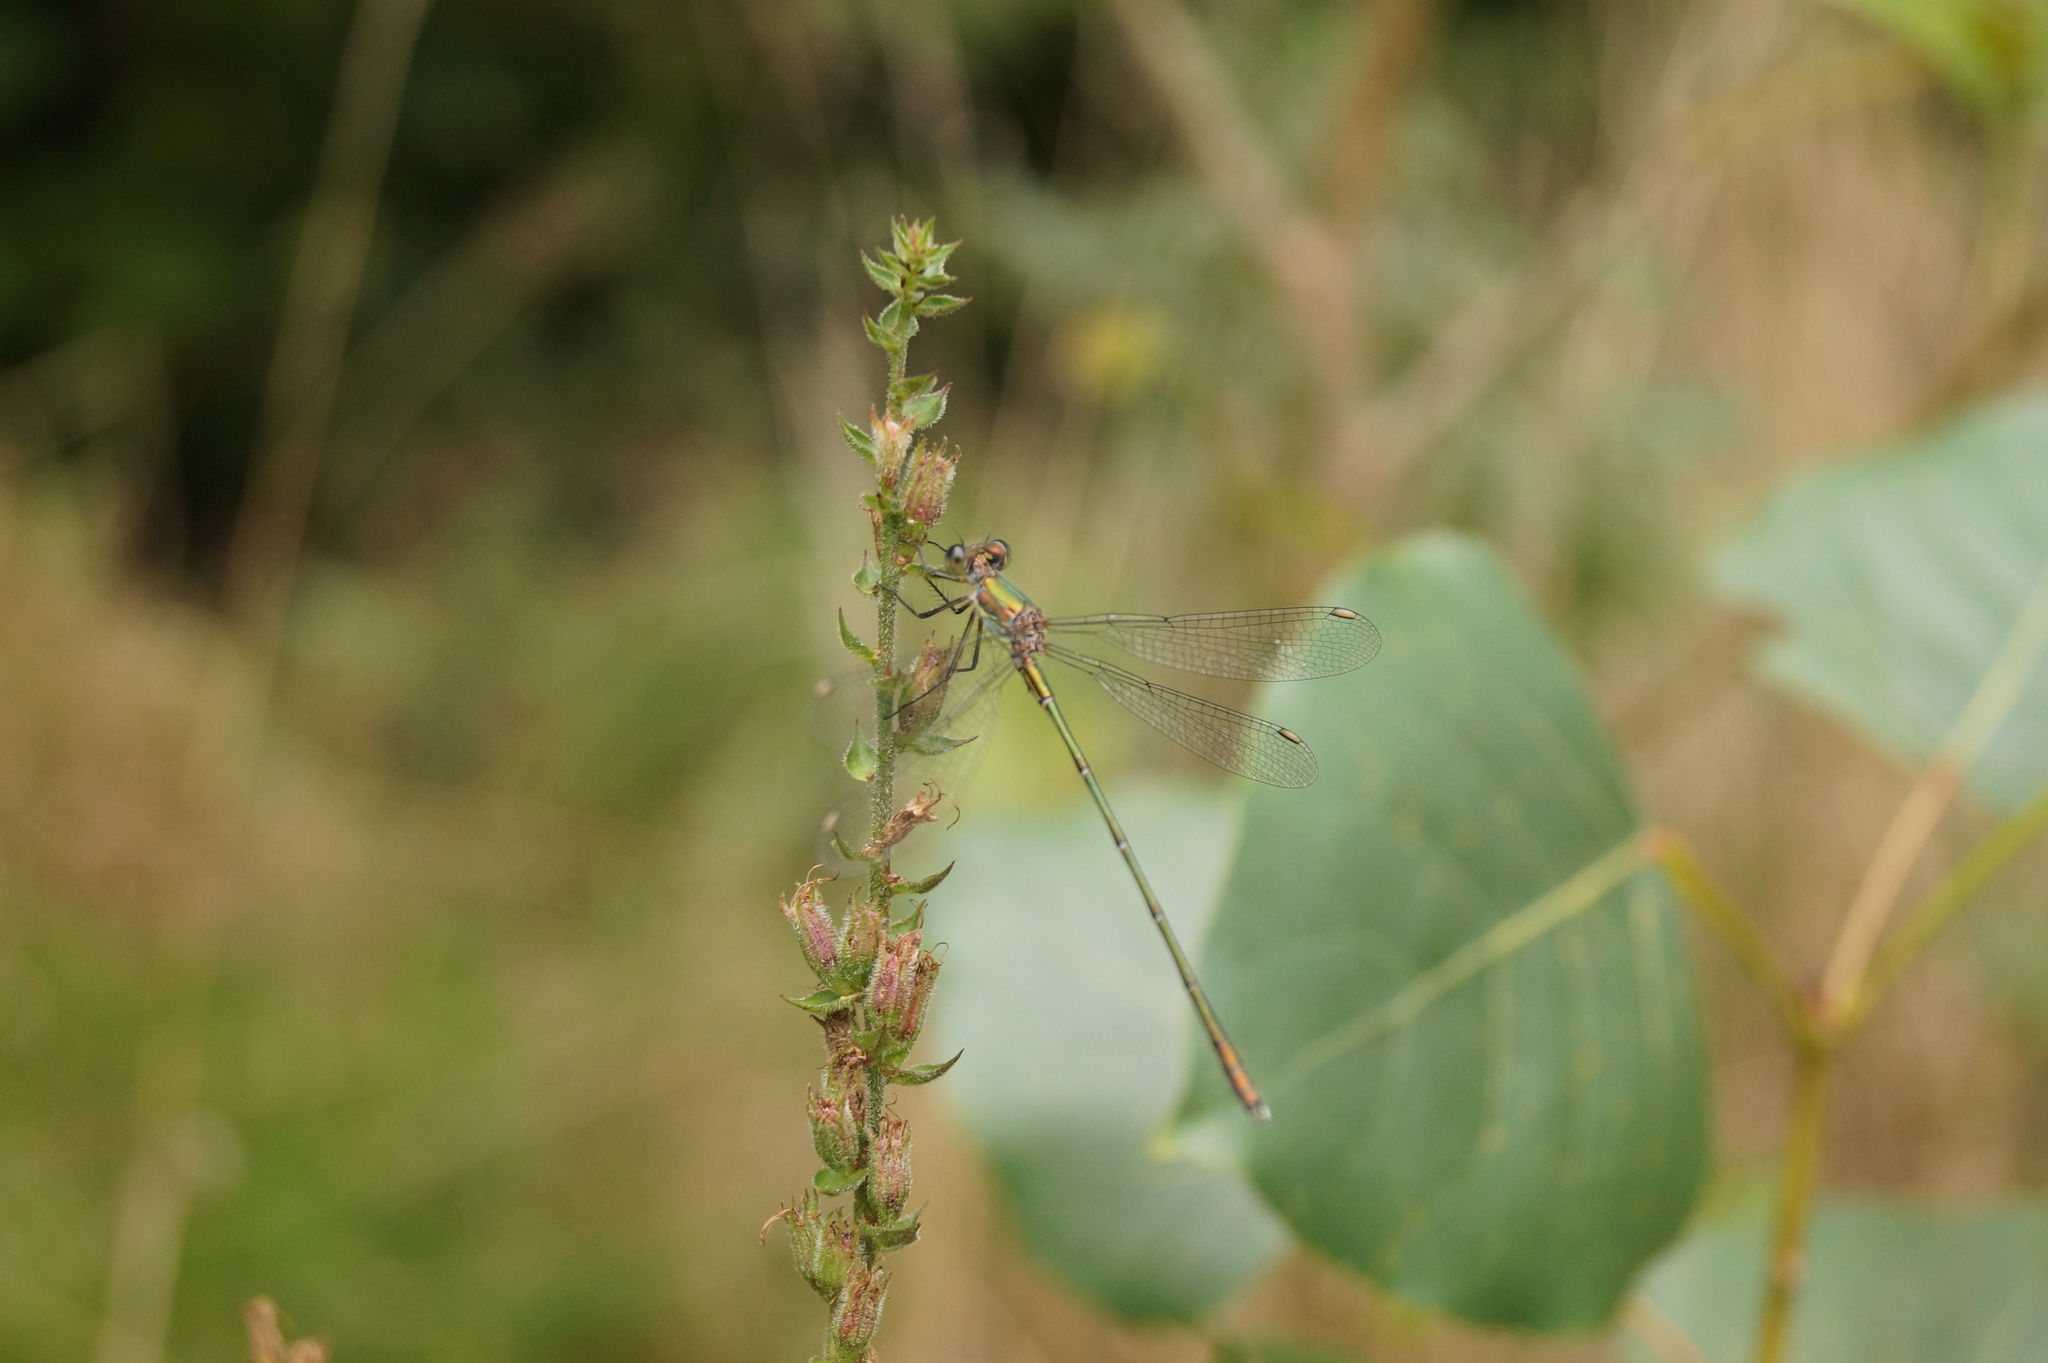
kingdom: Animalia
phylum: Arthropoda
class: Insecta
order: Odonata
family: Lestidae
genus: Chalcolestes
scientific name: Chalcolestes viridis
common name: Green emerald damselfly
